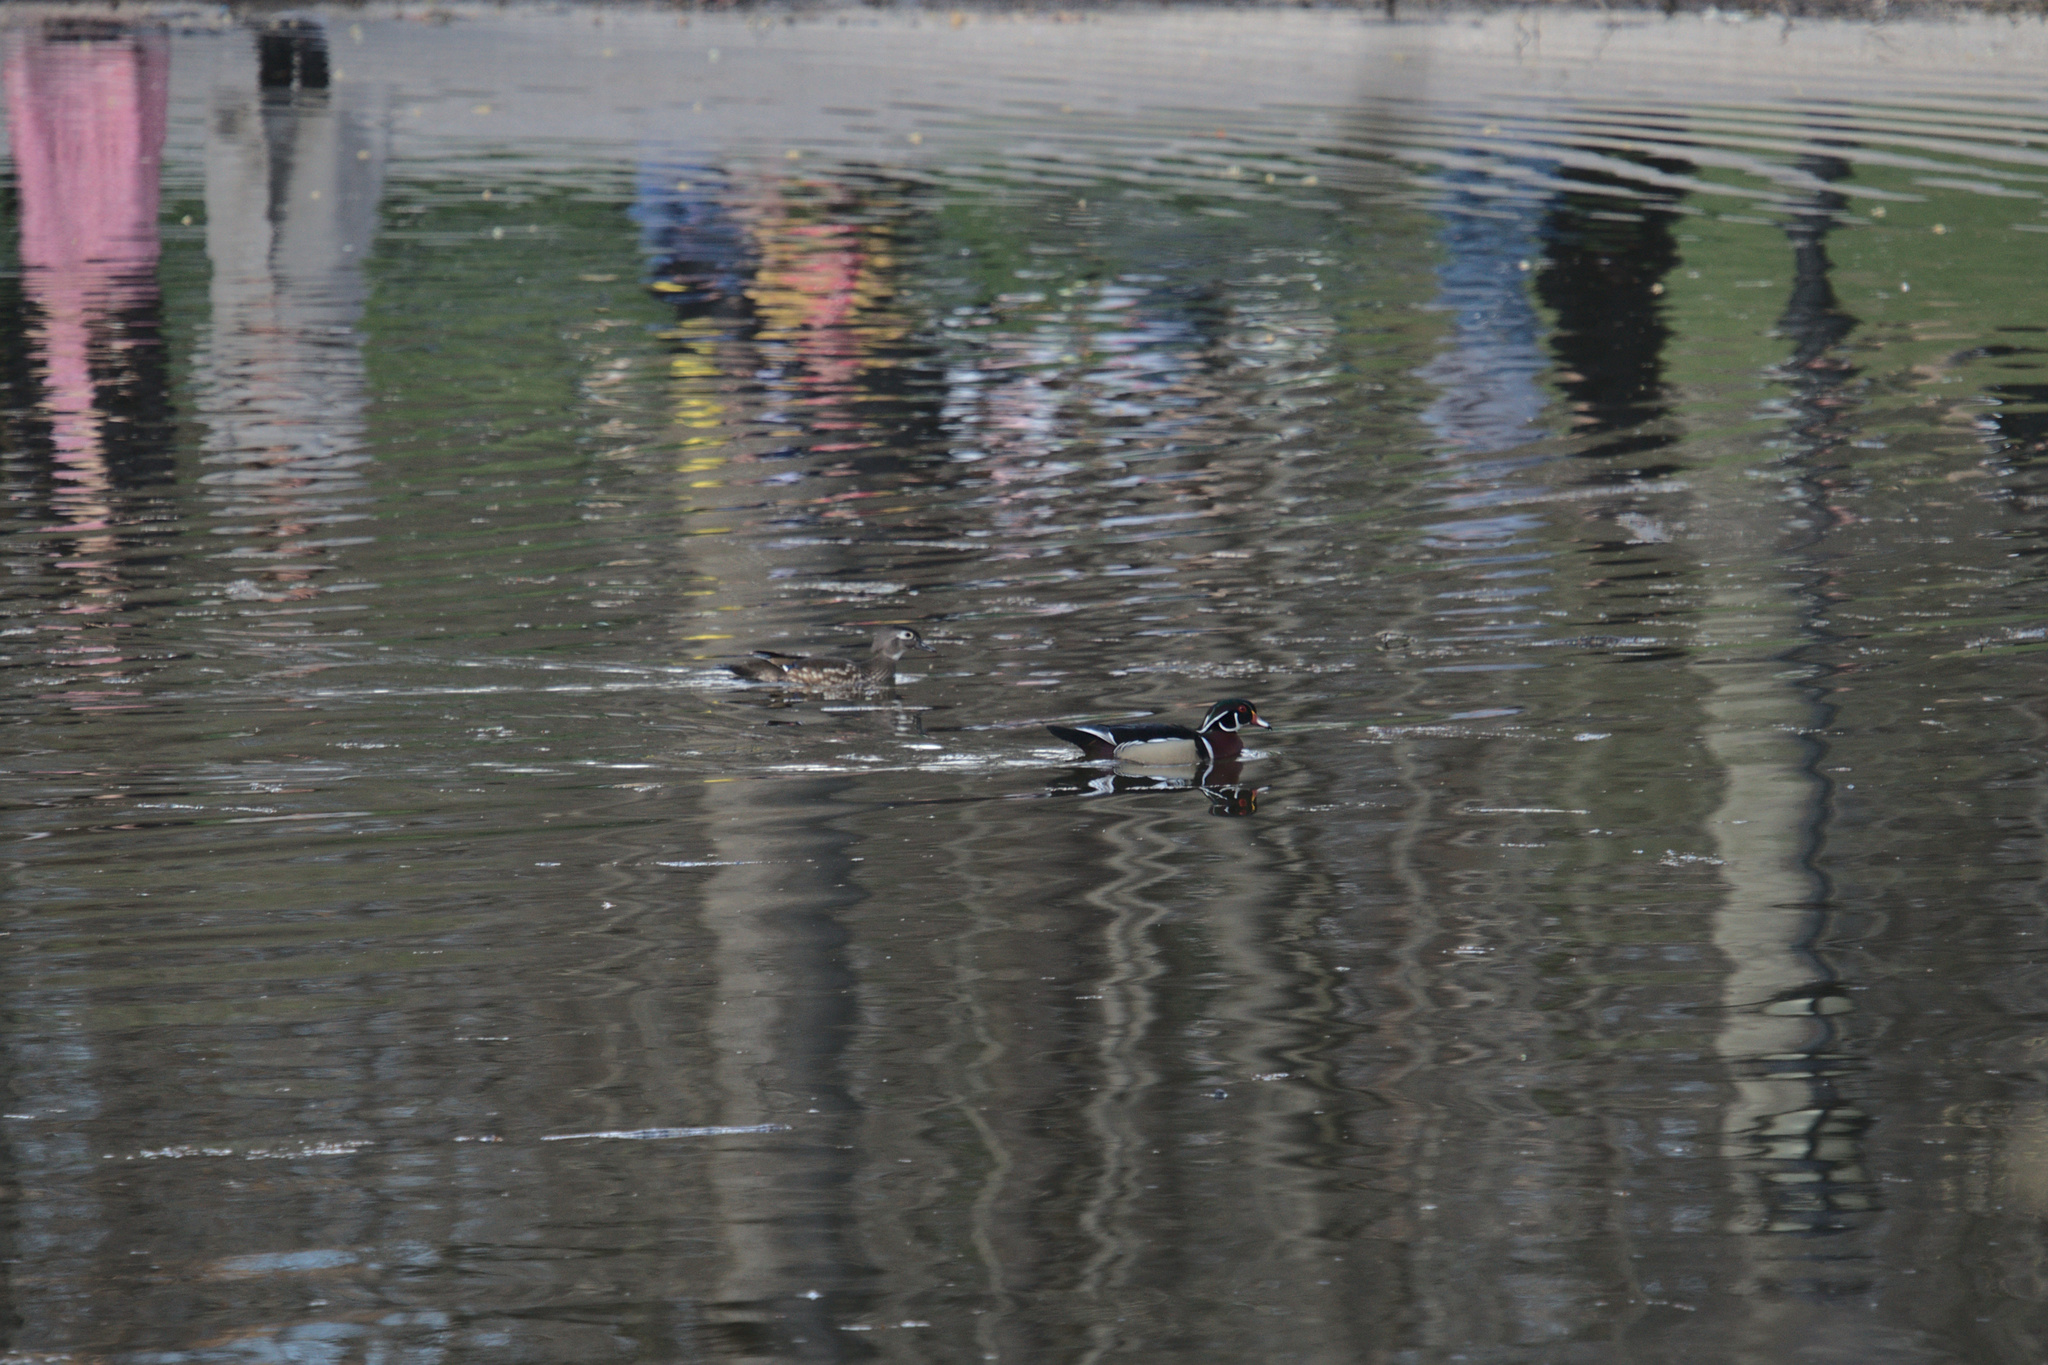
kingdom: Animalia
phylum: Chordata
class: Aves
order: Anseriformes
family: Anatidae
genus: Aix
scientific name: Aix sponsa
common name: Wood duck
